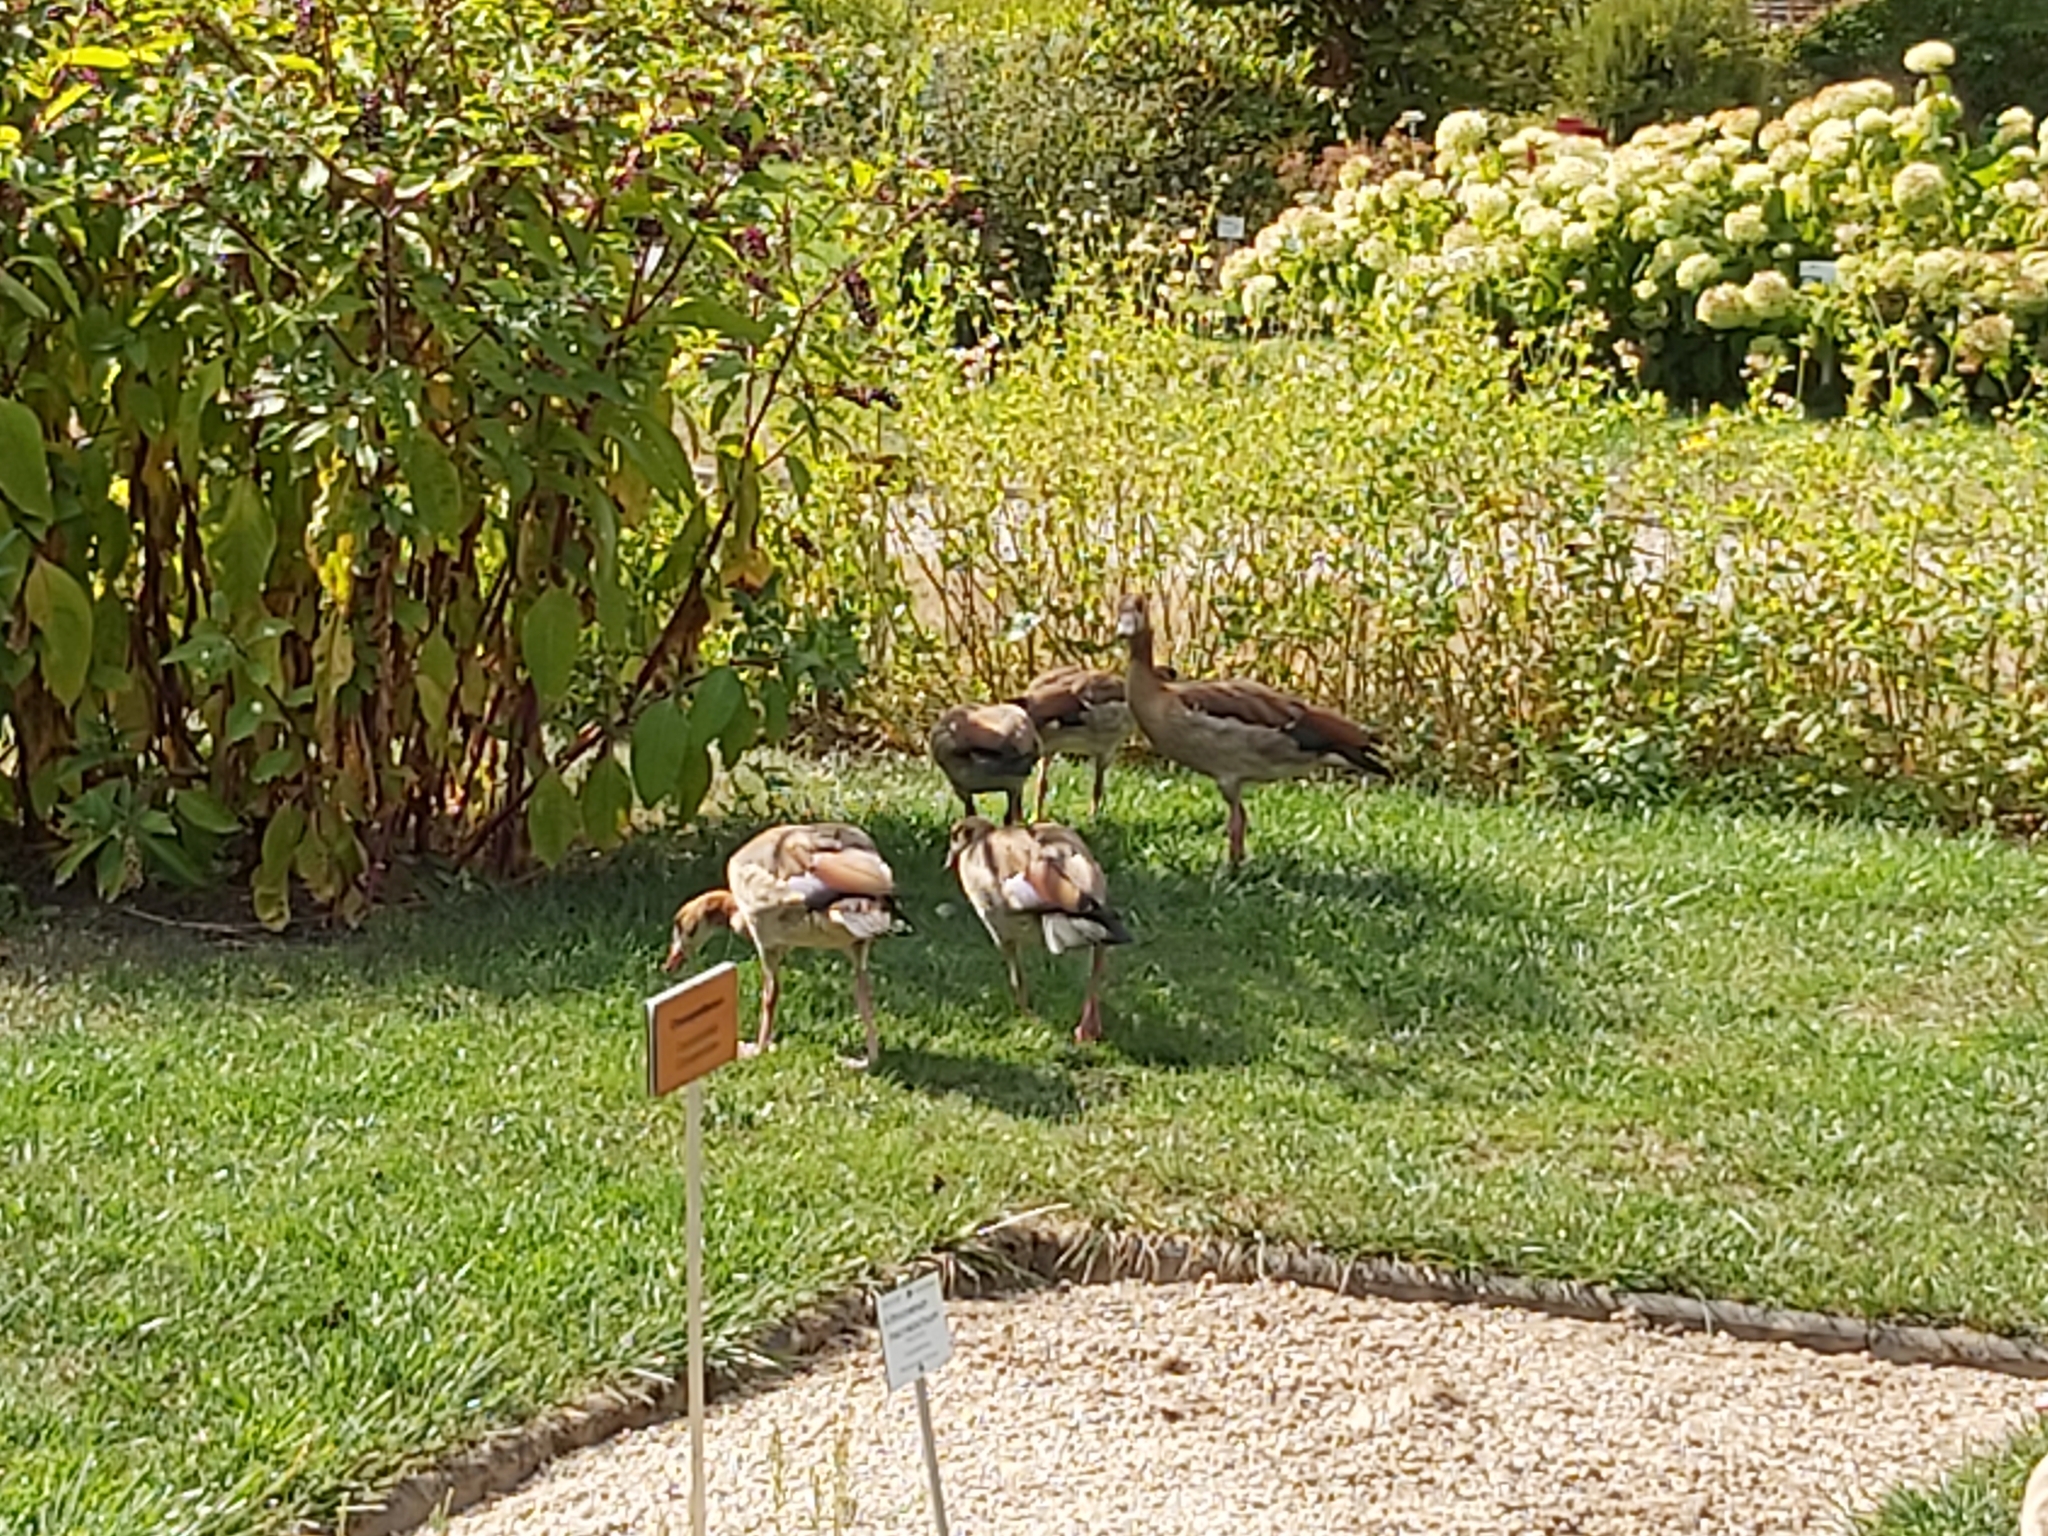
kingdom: Animalia
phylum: Chordata
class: Aves
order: Anseriformes
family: Anatidae
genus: Alopochen
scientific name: Alopochen aegyptiaca
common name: Egyptian goose
